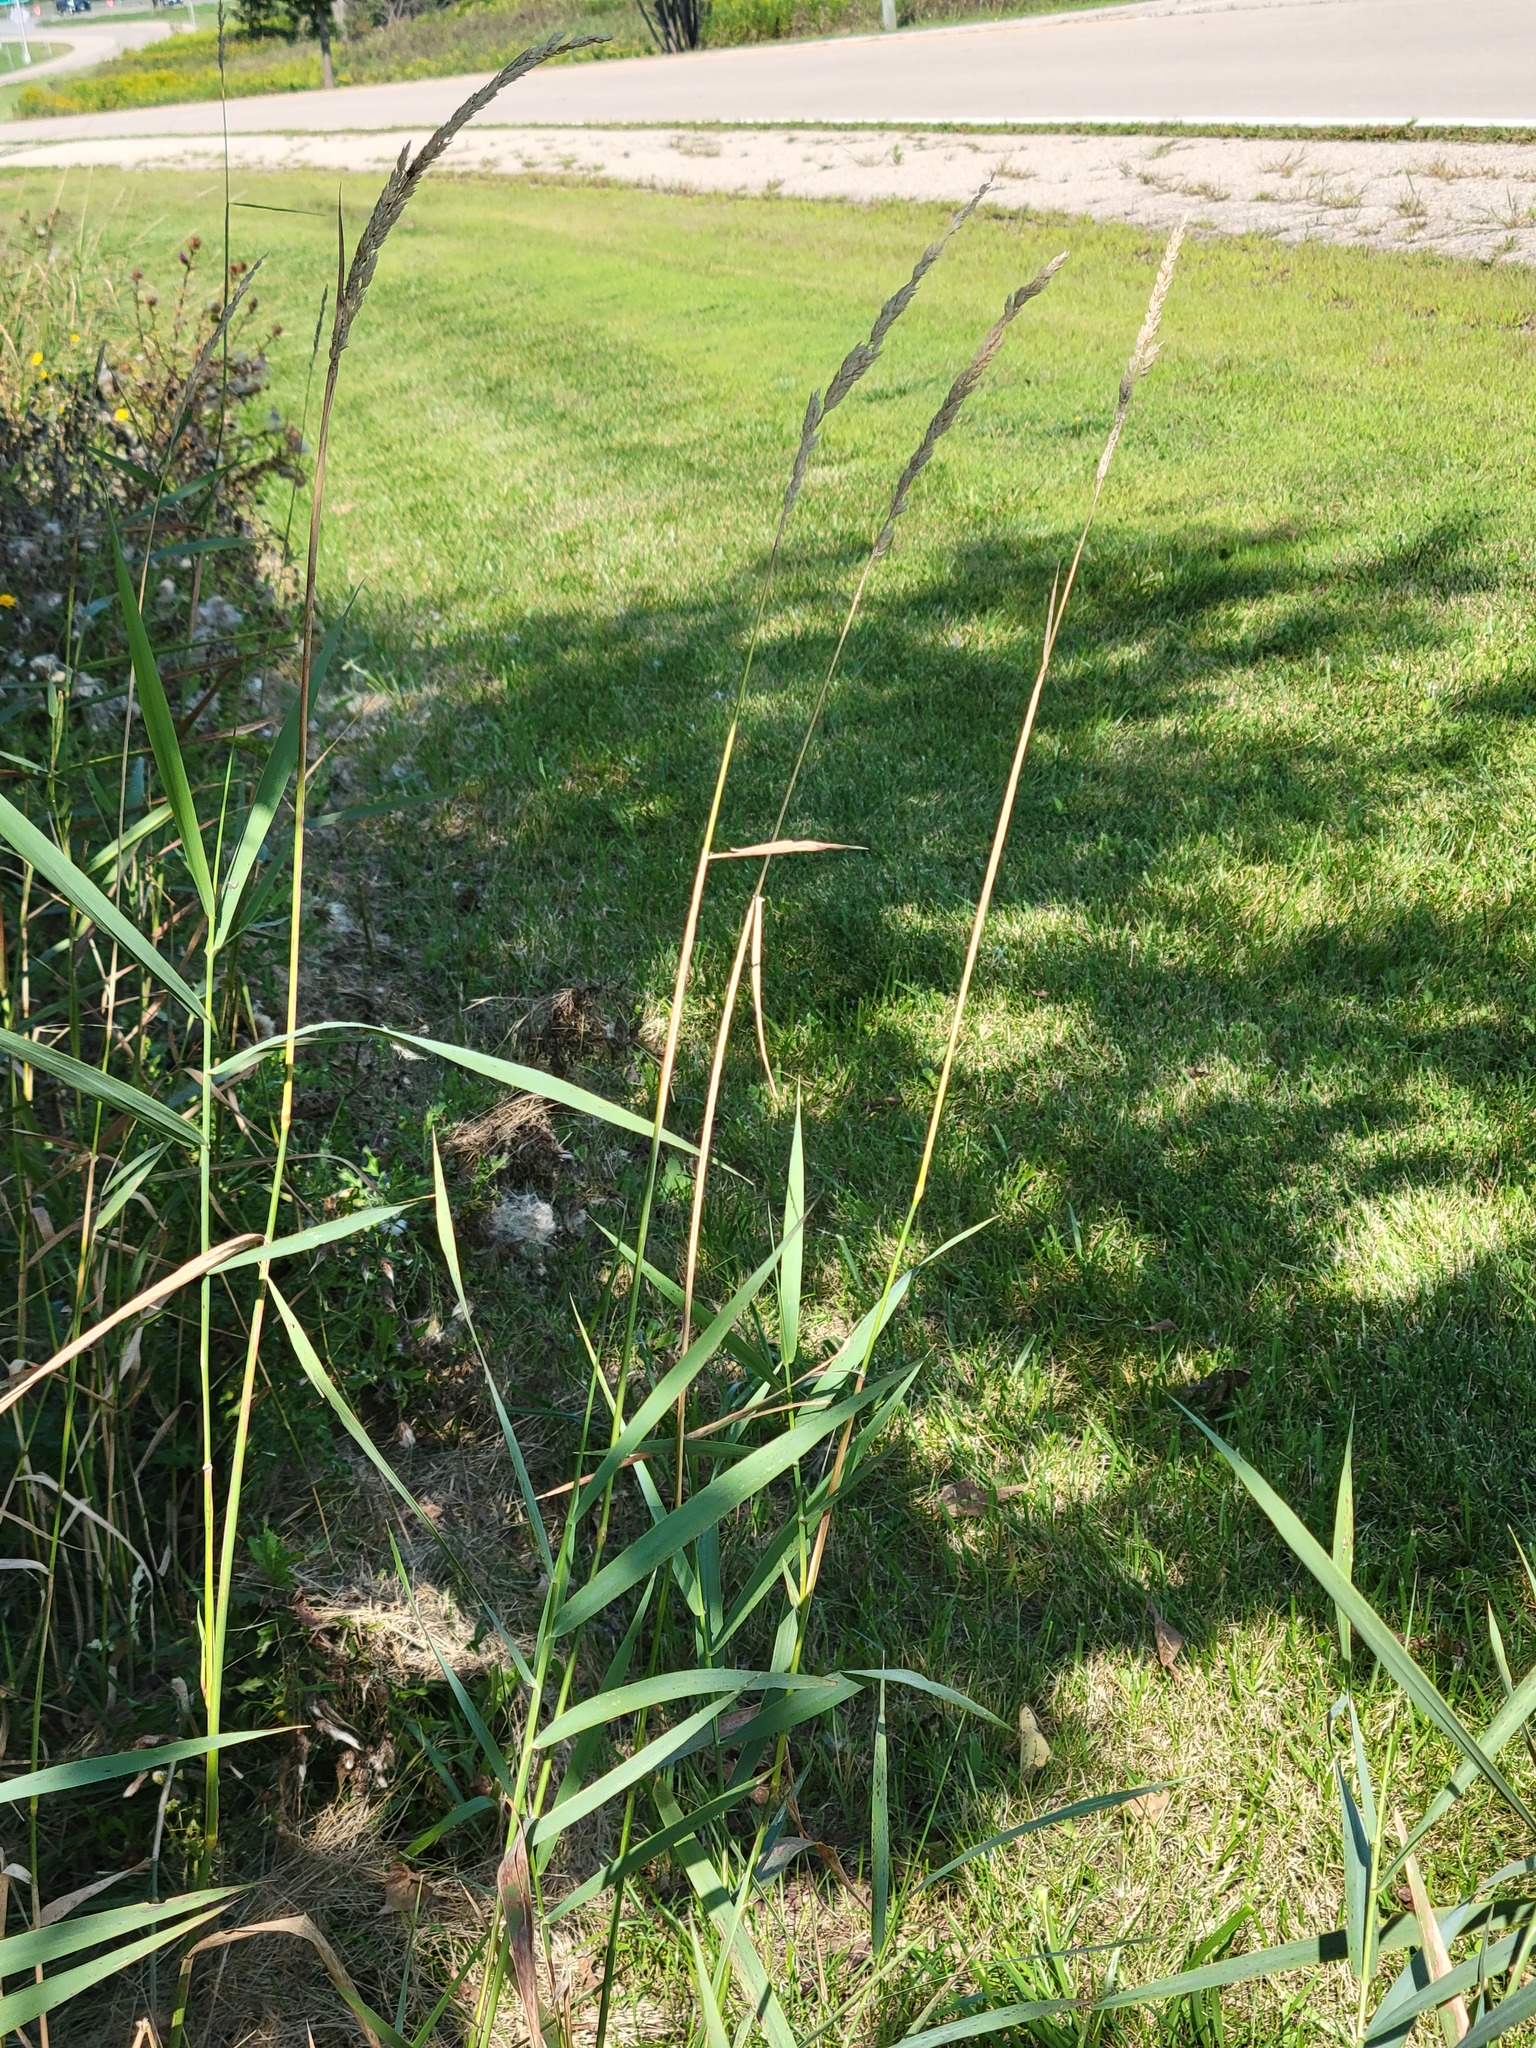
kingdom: Plantae
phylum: Tracheophyta
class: Liliopsida
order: Poales
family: Poaceae
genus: Phalaris
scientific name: Phalaris arundinacea
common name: Reed canary-grass
